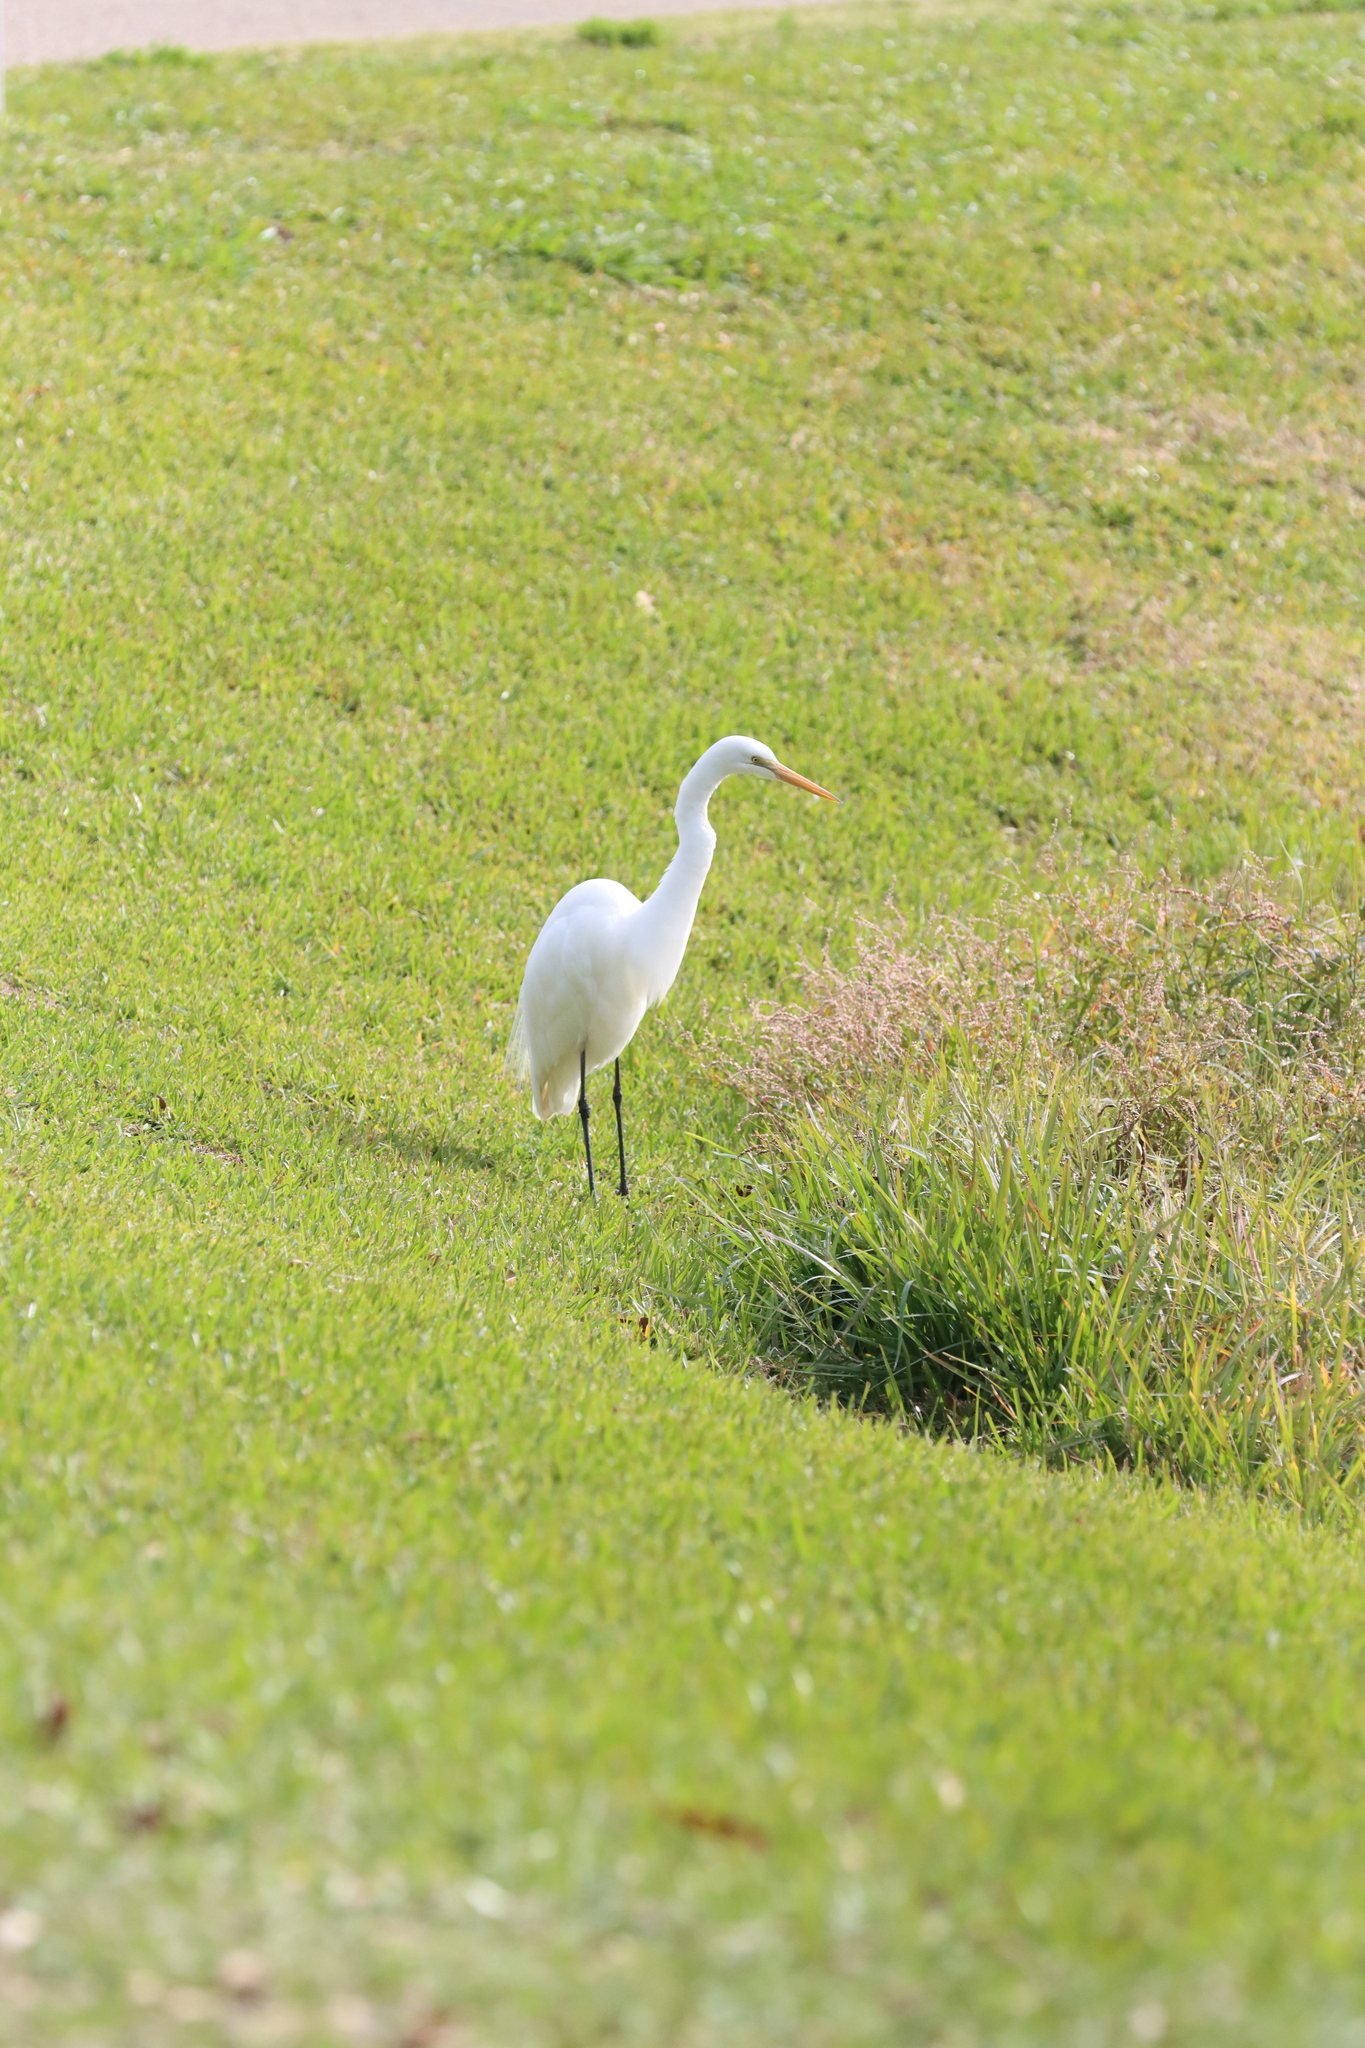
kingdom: Animalia
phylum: Chordata
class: Aves
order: Pelecaniformes
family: Ardeidae
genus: Ardea
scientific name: Ardea alba
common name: Great egret
